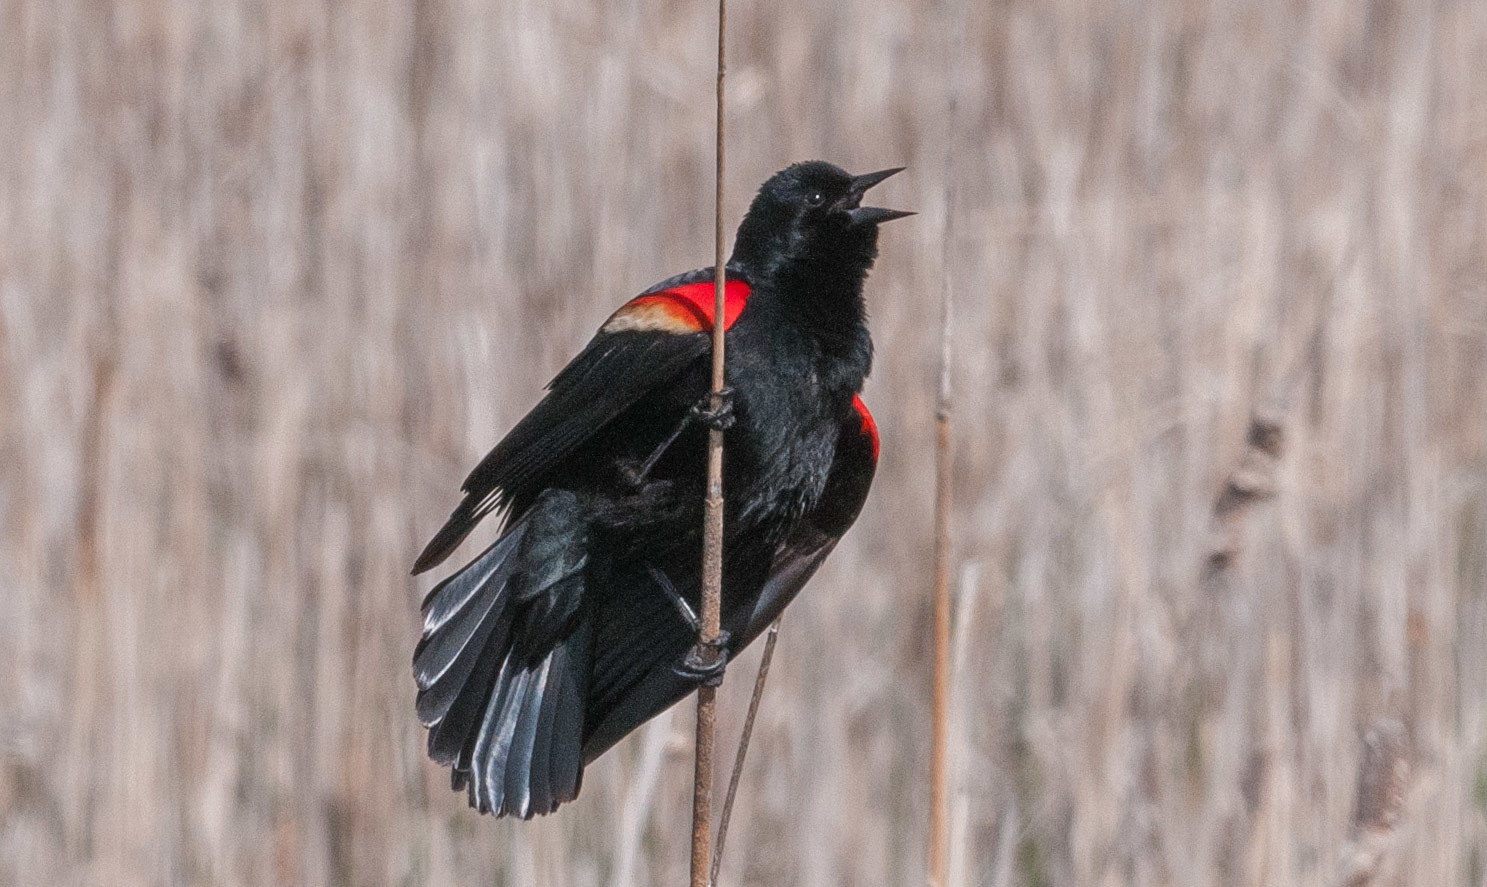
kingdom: Animalia
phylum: Chordata
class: Aves
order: Passeriformes
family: Icteridae
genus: Agelaius
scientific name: Agelaius phoeniceus
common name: Red-winged blackbird
